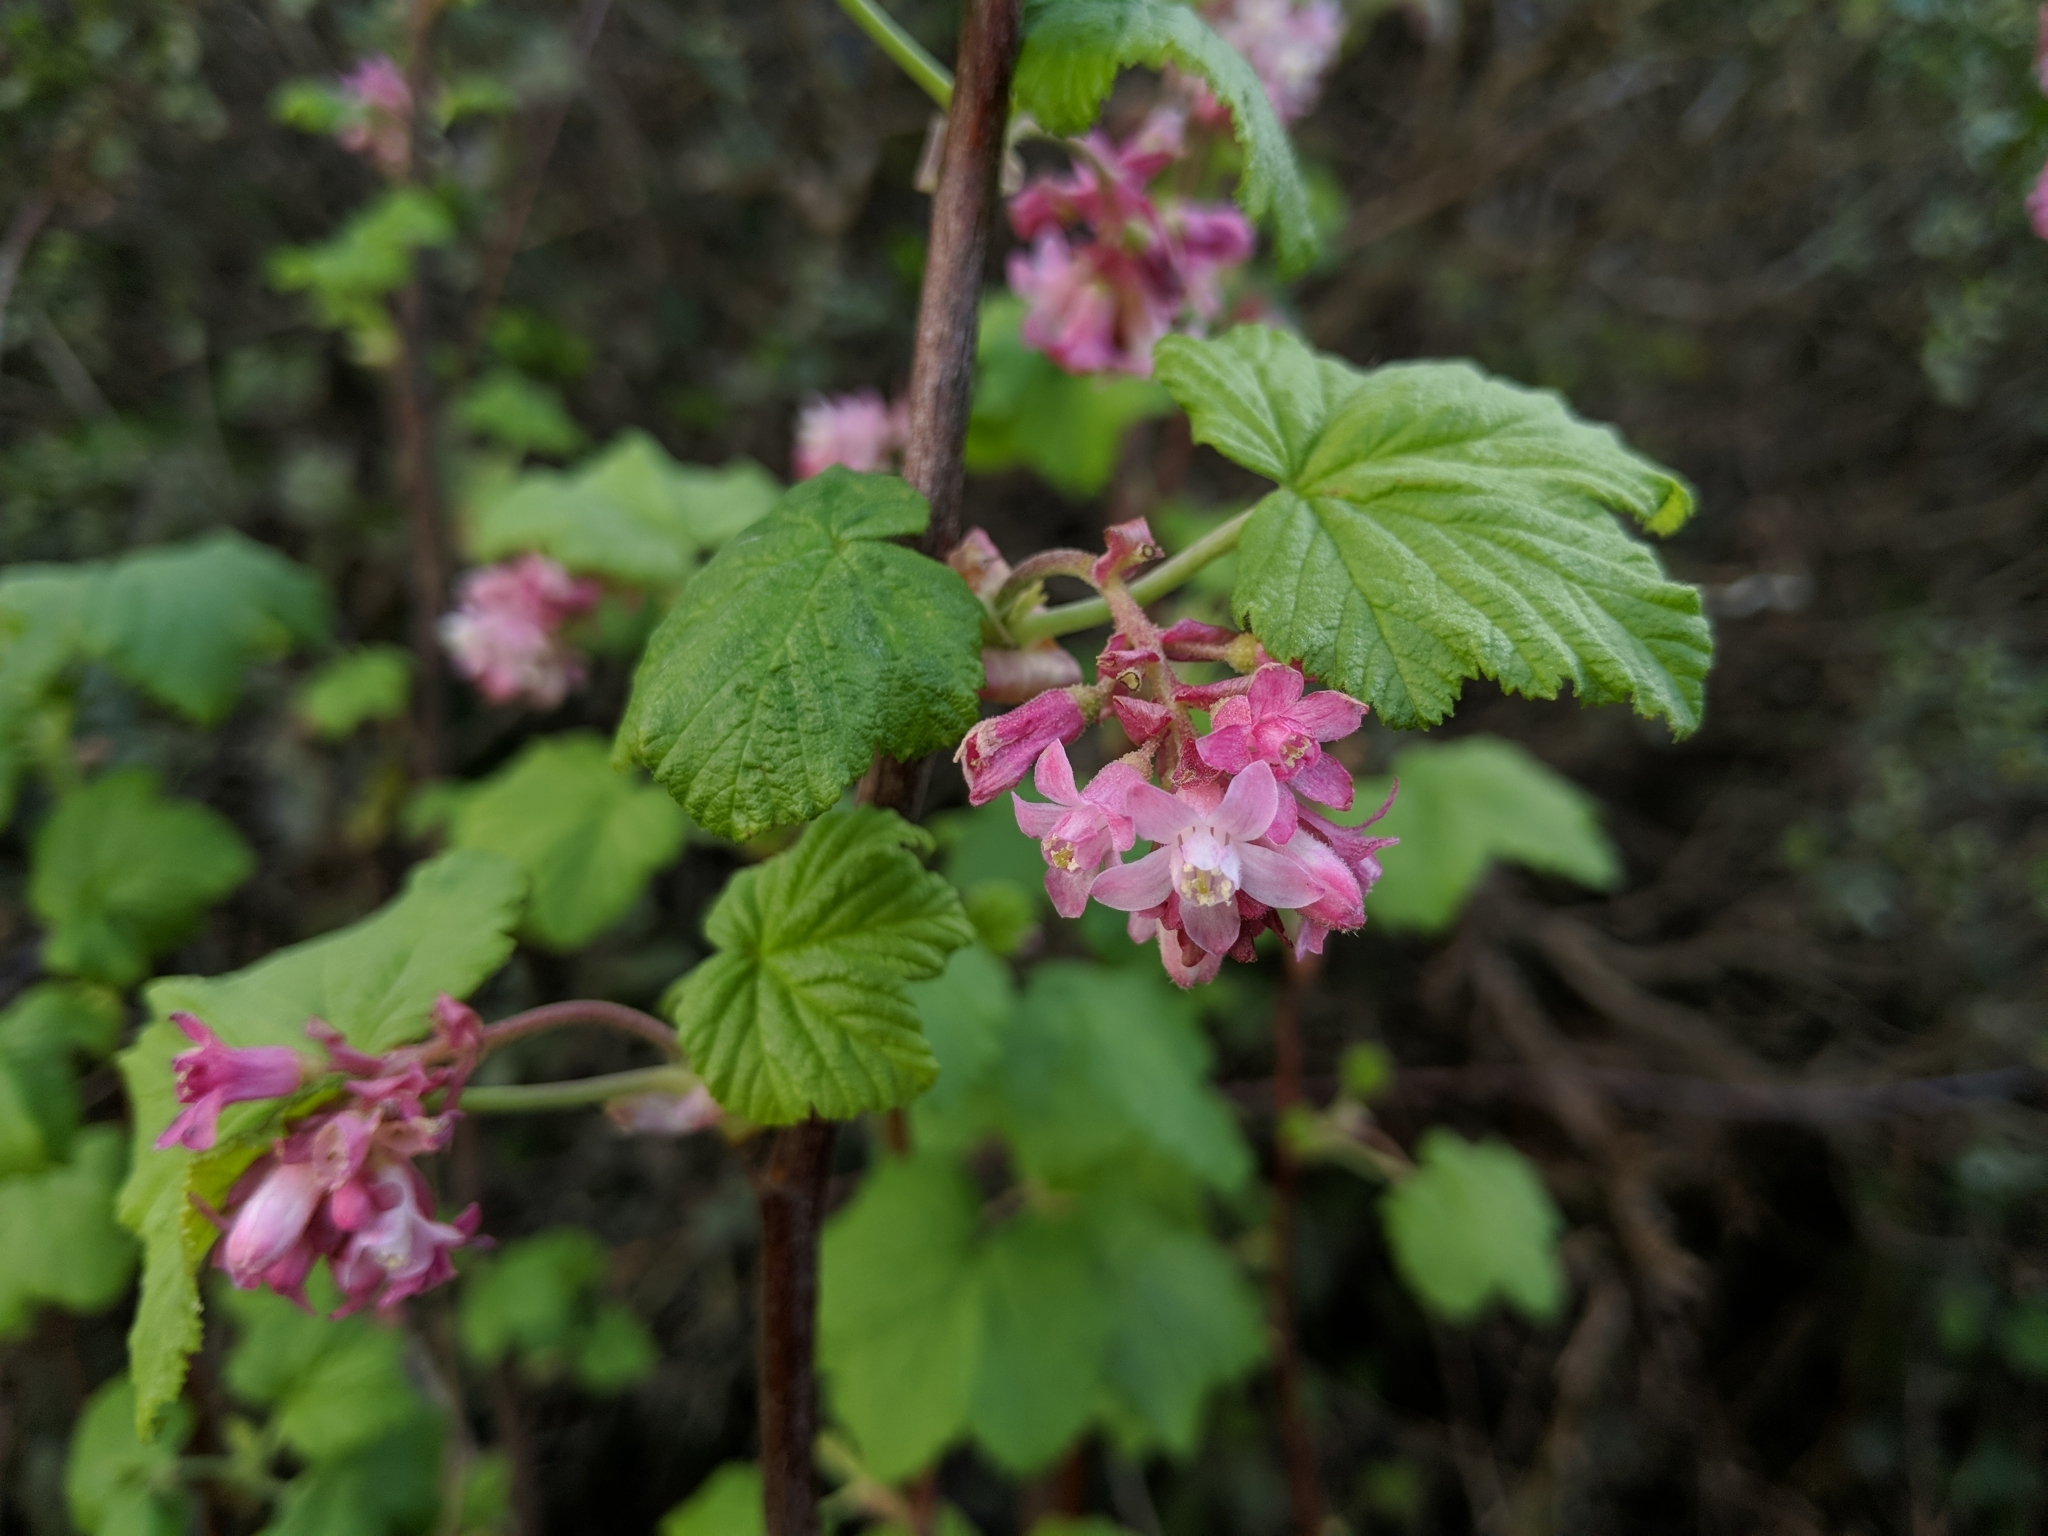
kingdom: Plantae
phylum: Tracheophyta
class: Magnoliopsida
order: Saxifragales
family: Grossulariaceae
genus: Ribes
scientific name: Ribes sanguineum
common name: Flowering currant
